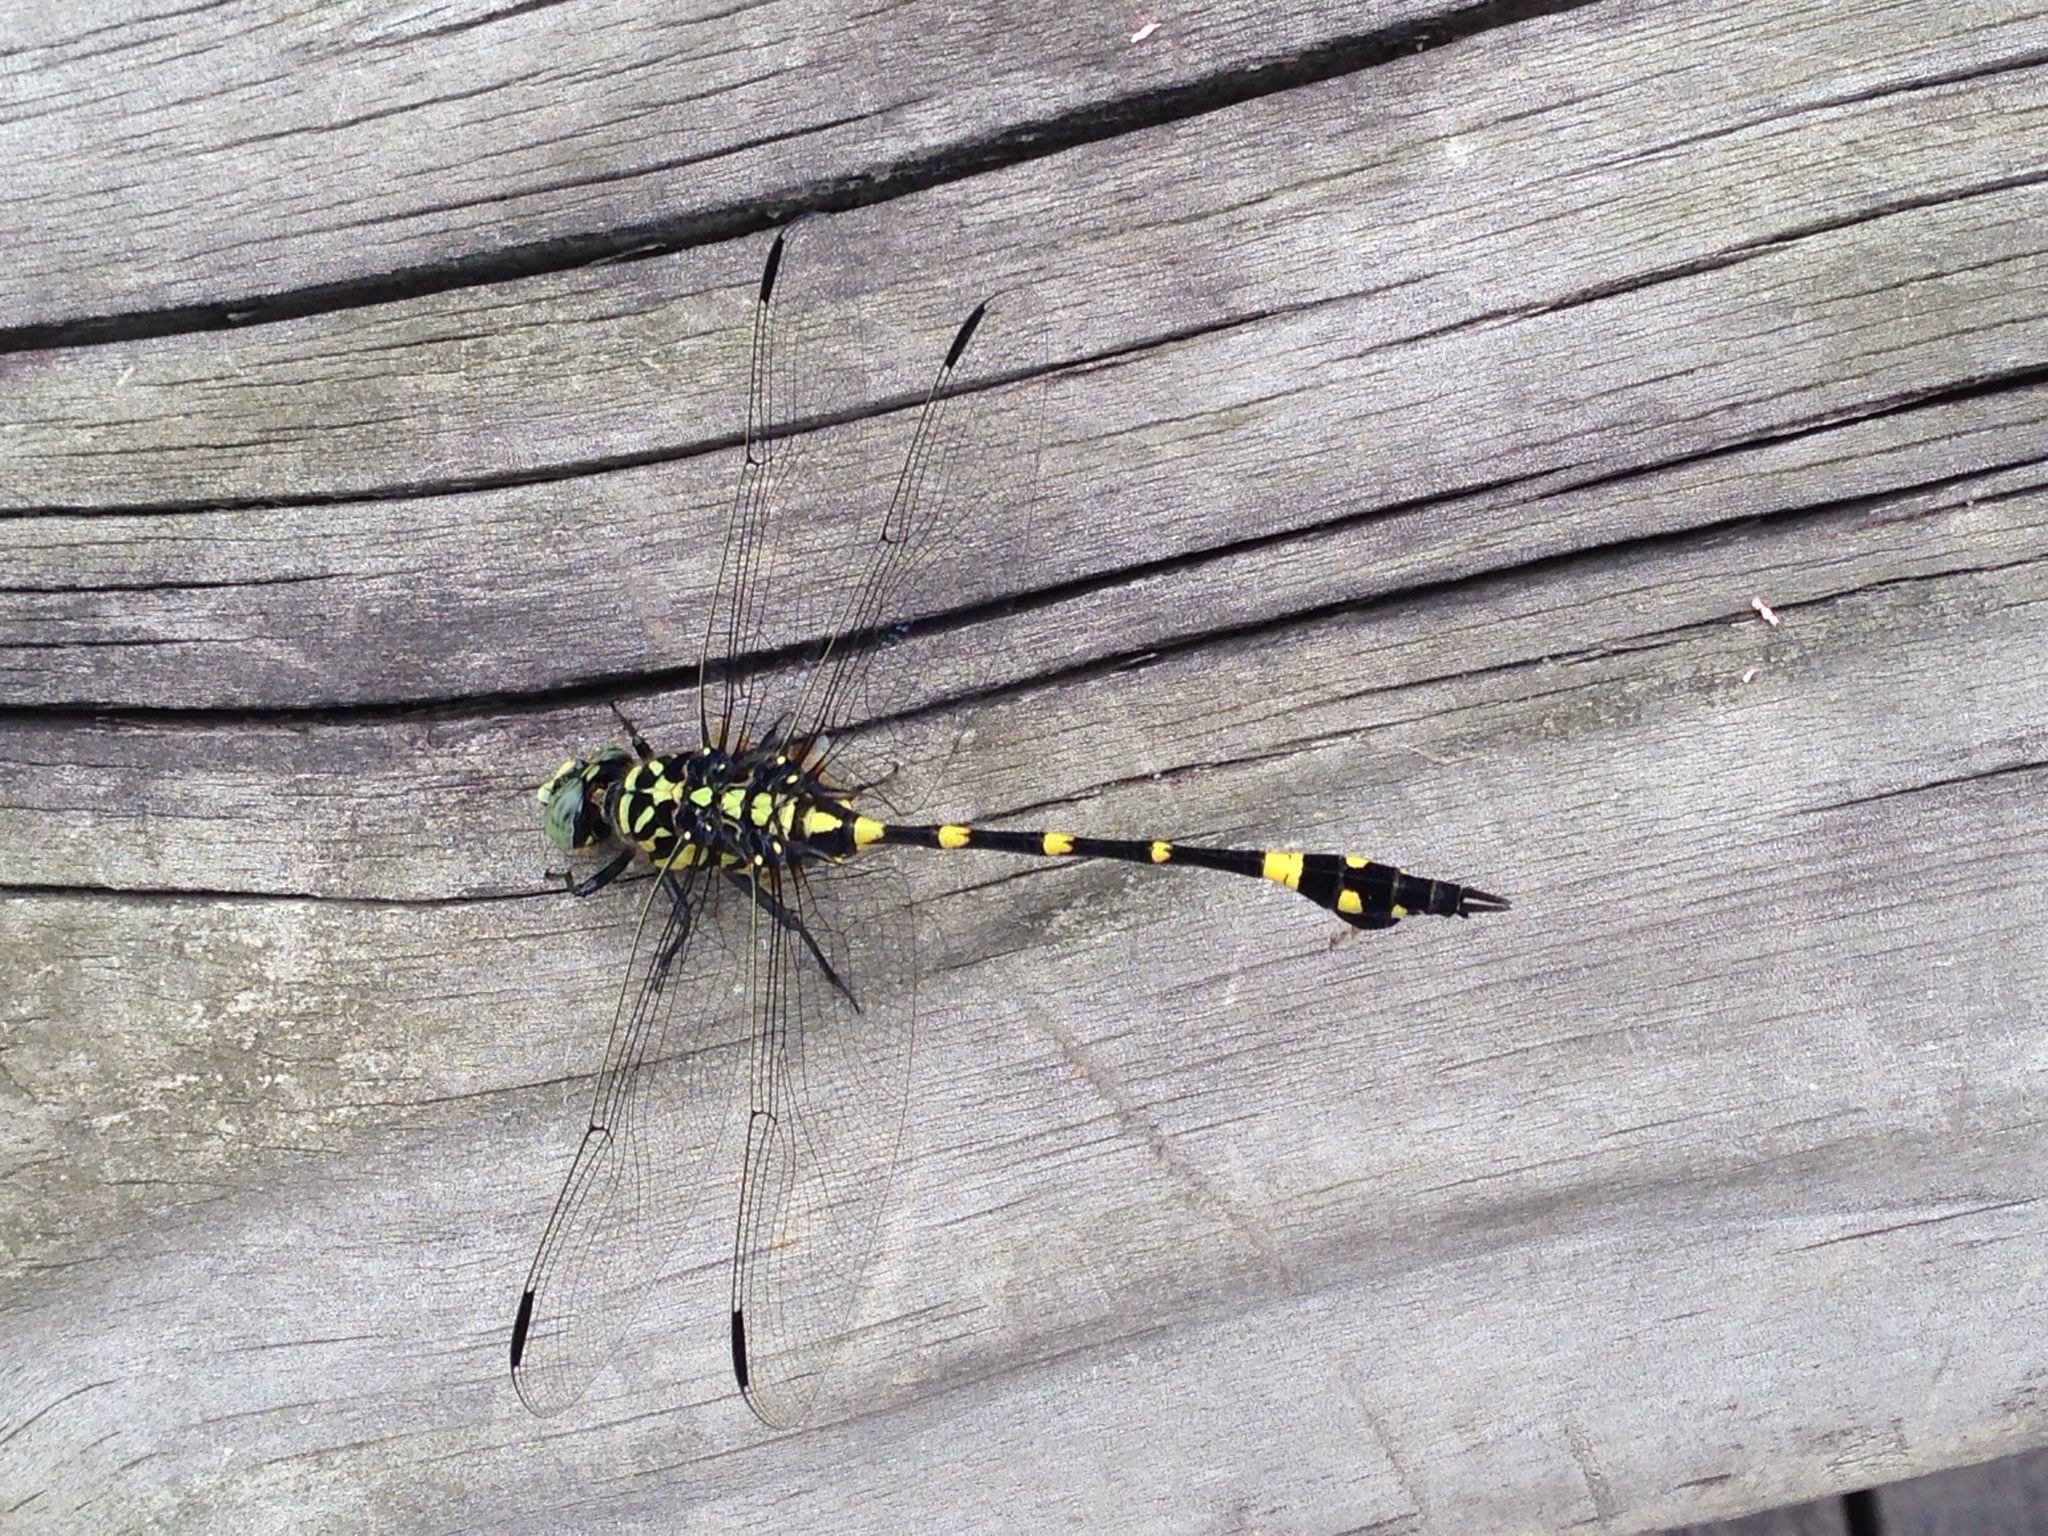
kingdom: Animalia
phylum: Arthropoda
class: Insecta
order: Odonata
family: Gomphidae
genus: Ictinogomphus
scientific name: Ictinogomphus pertinax
